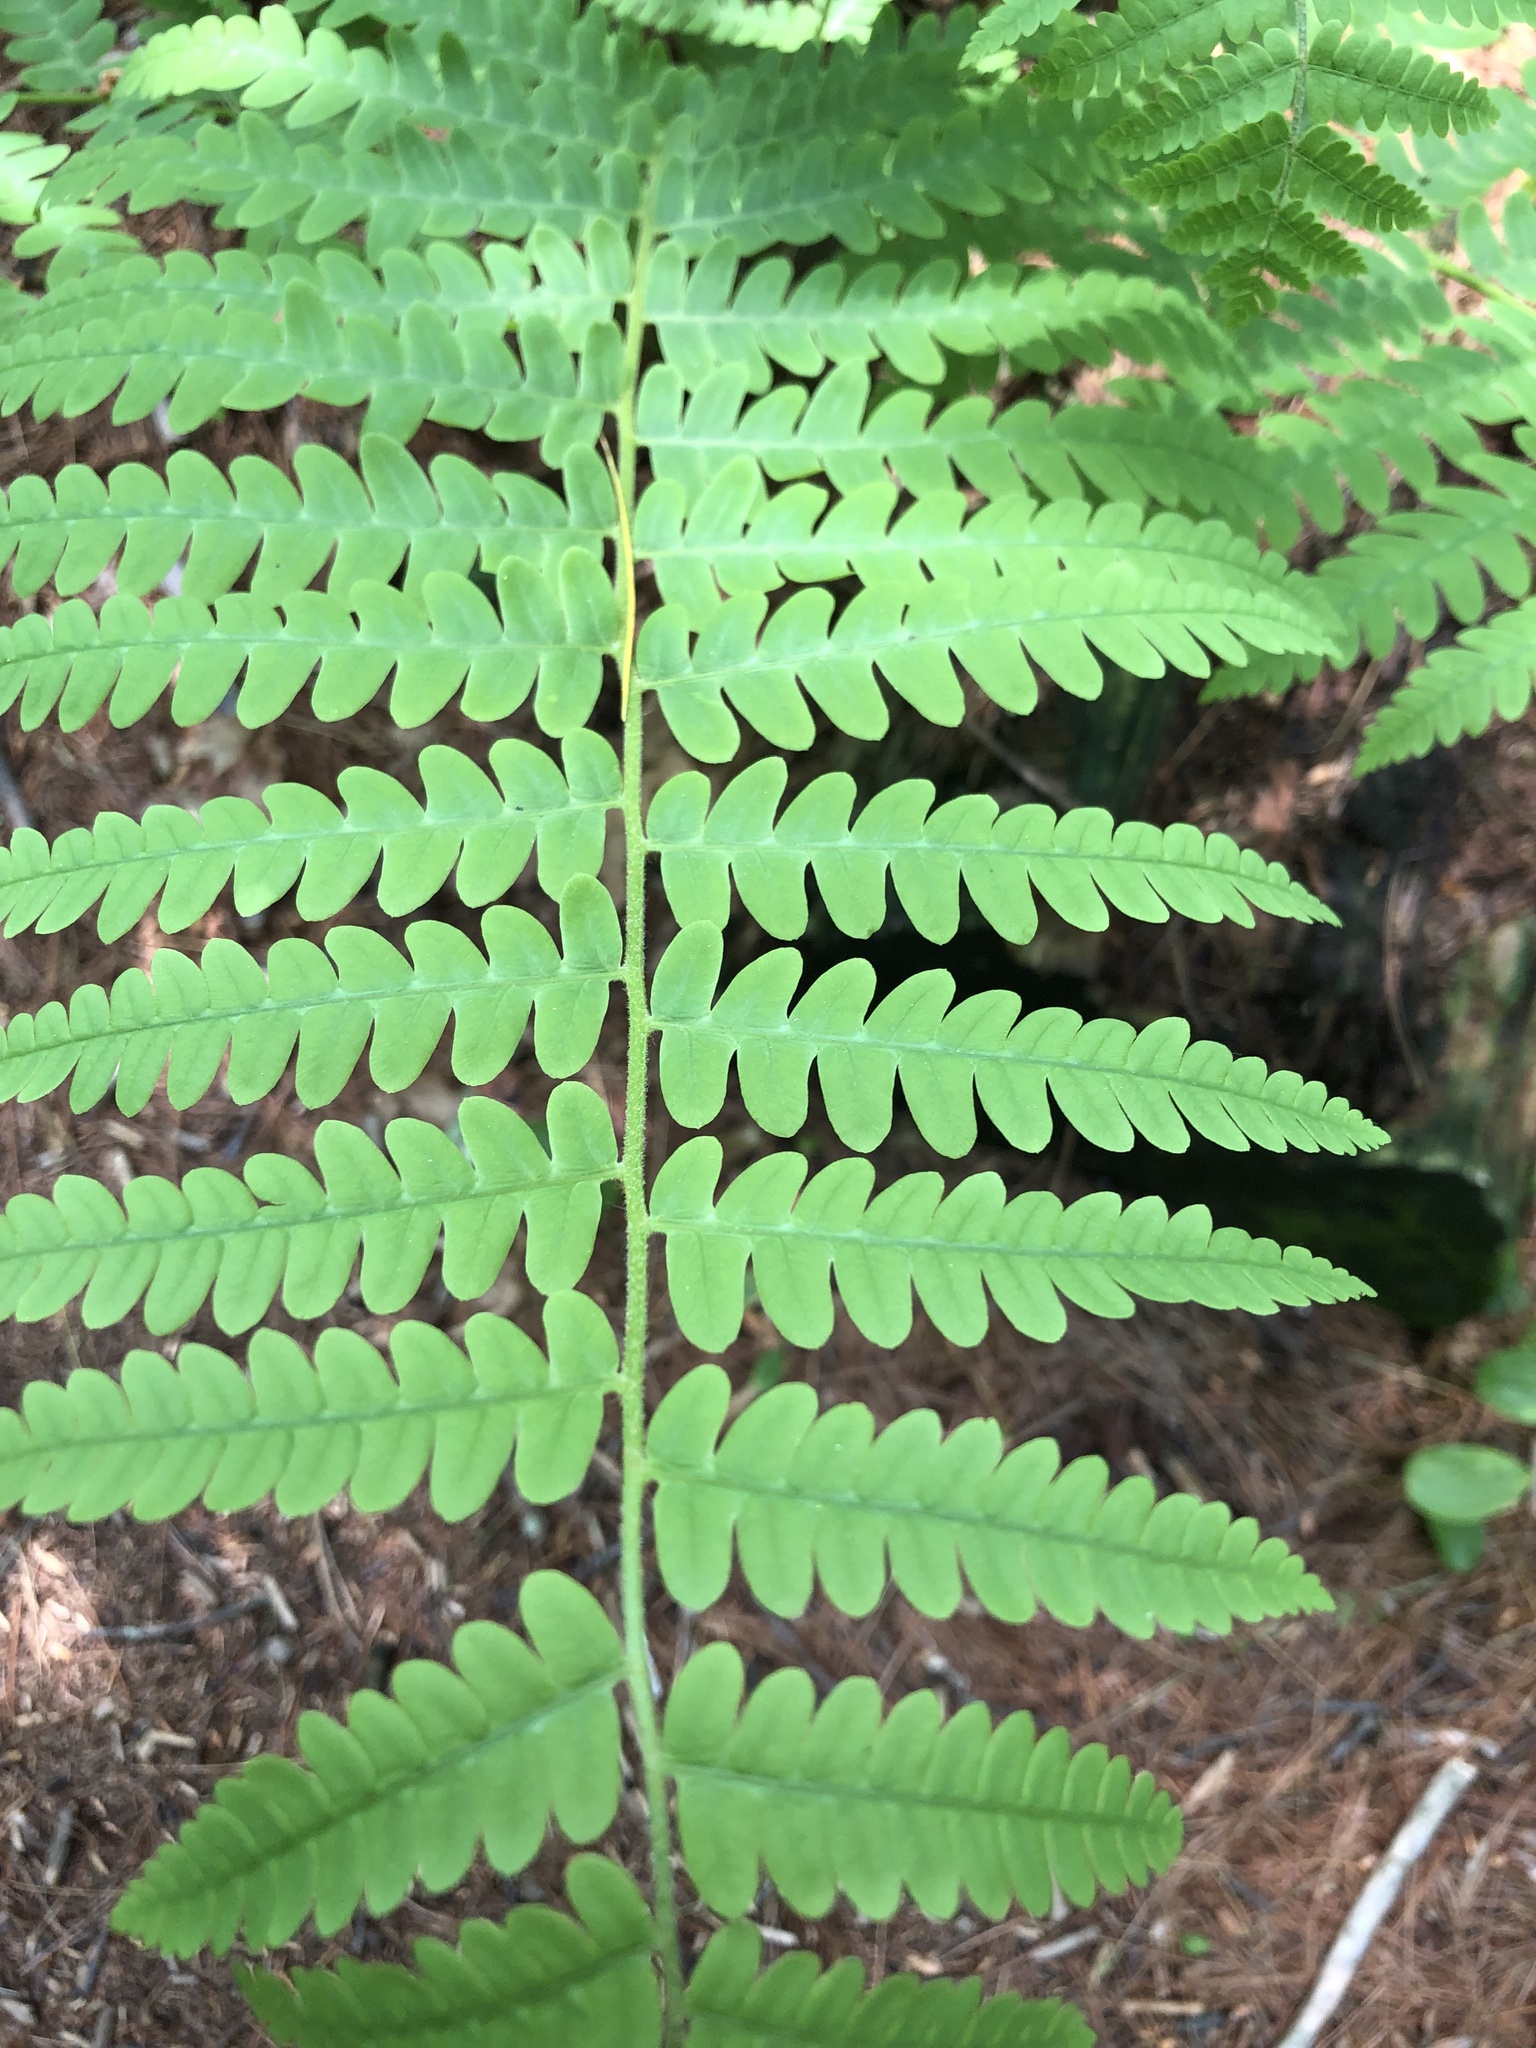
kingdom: Plantae
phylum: Tracheophyta
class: Polypodiopsida
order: Osmundales
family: Osmundaceae
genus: Osmundastrum
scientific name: Osmundastrum cinnamomeum
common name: Cinnamon fern
